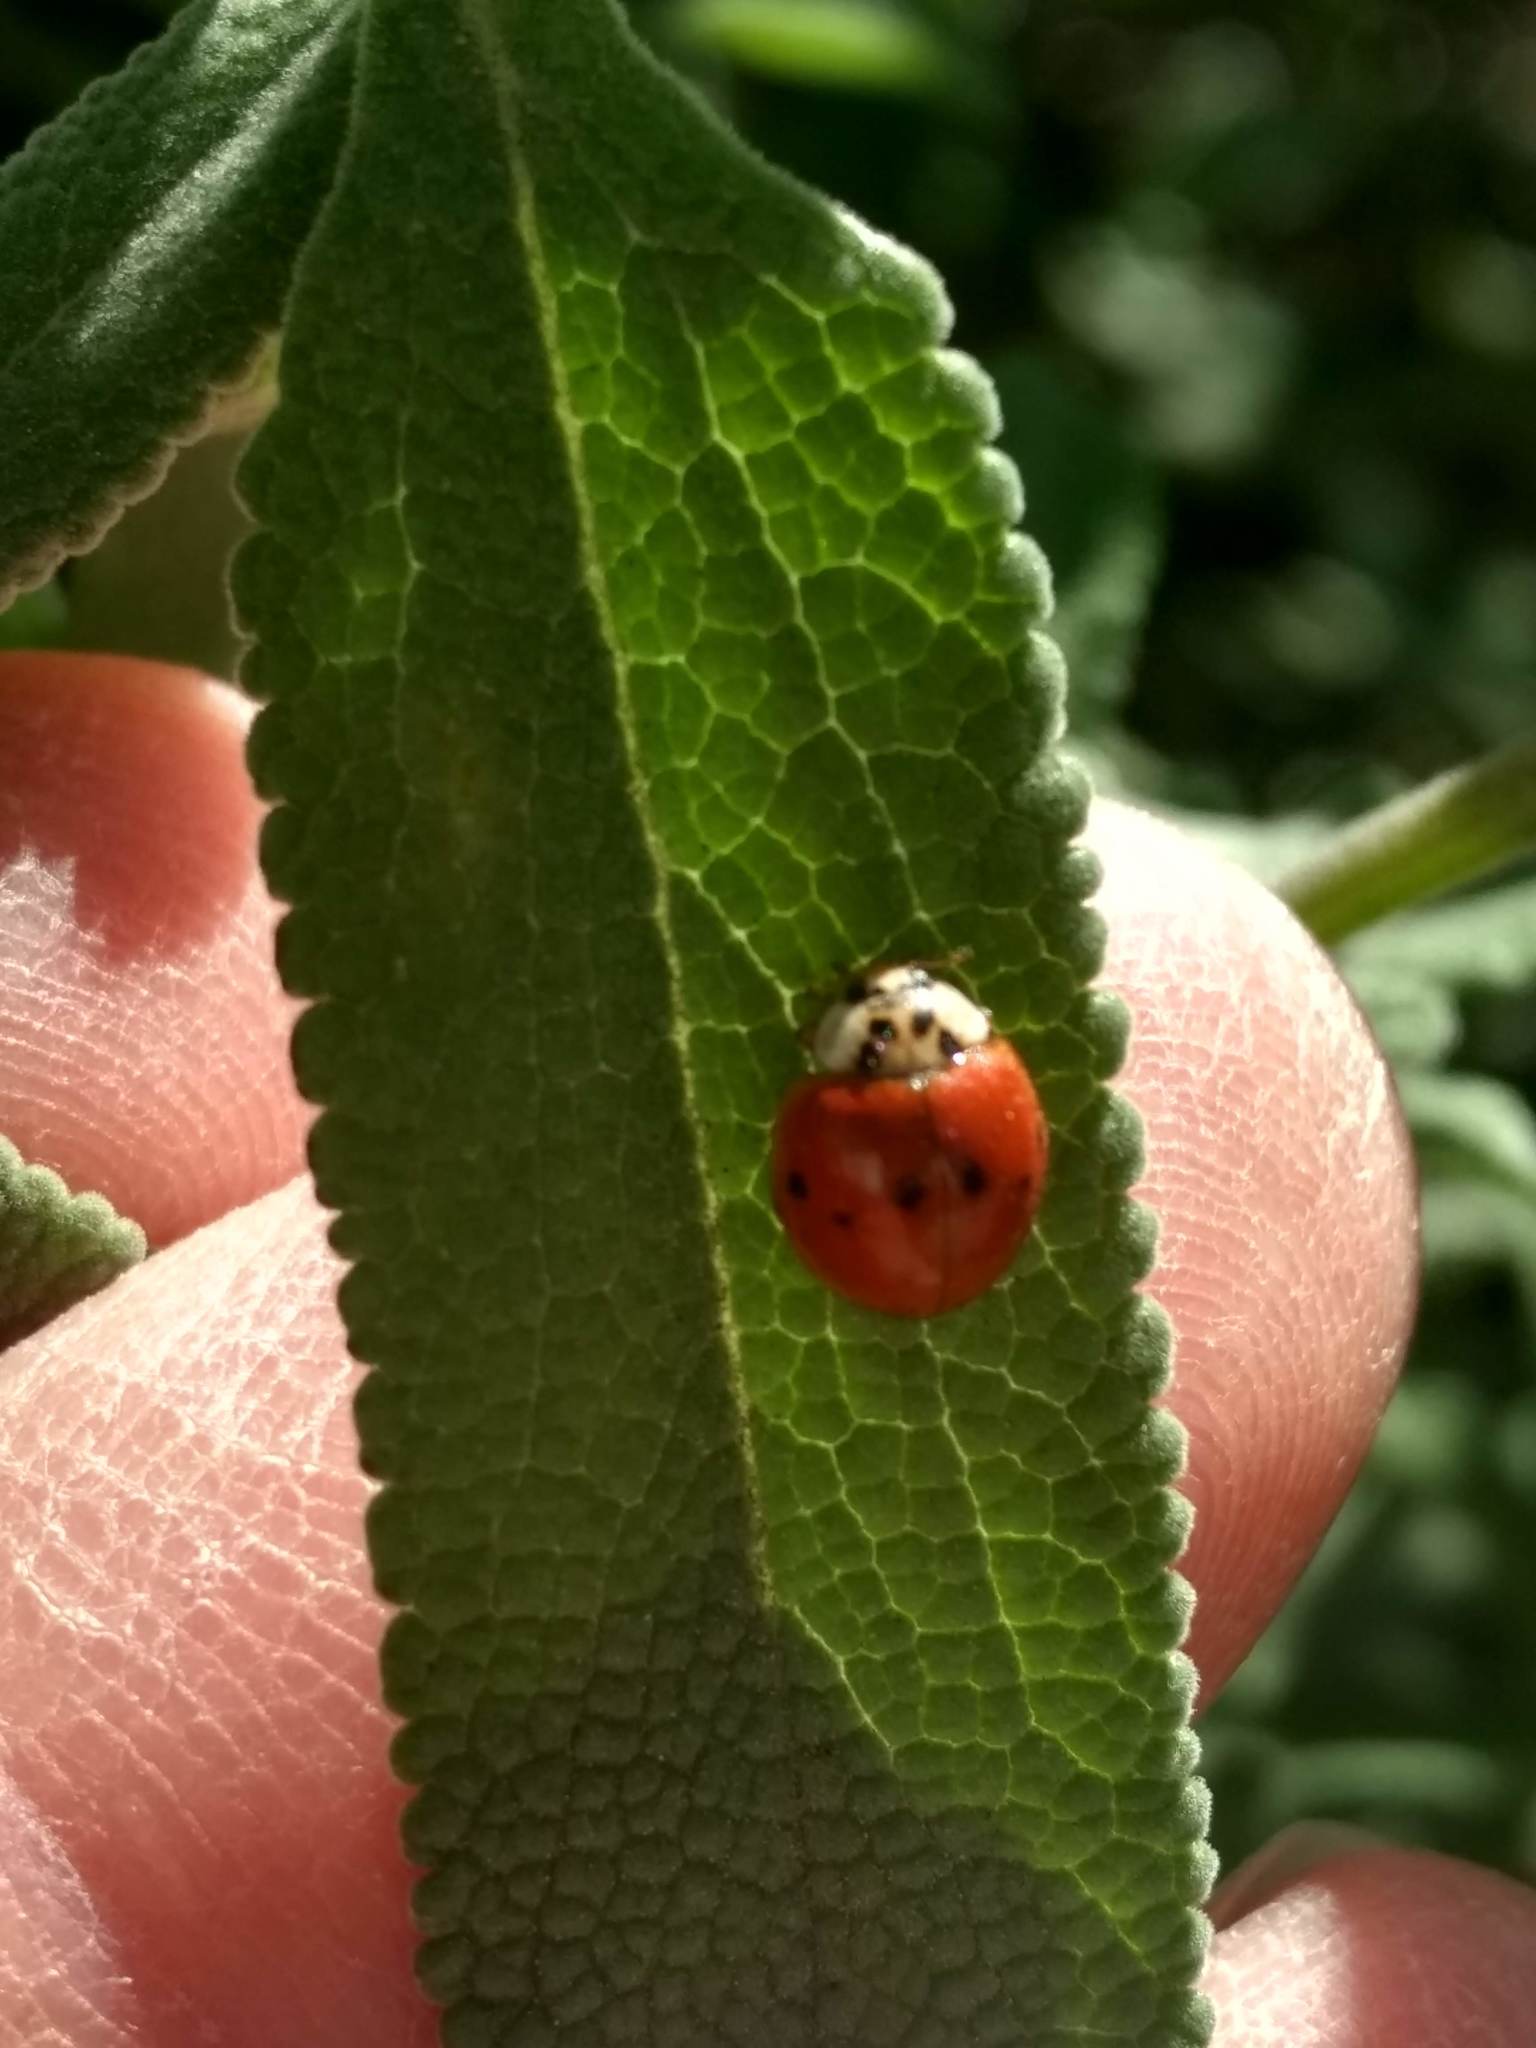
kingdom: Animalia
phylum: Arthropoda
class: Insecta
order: Coleoptera
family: Coccinellidae
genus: Harmonia
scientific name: Harmonia axyridis
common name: Harlequin ladybird
